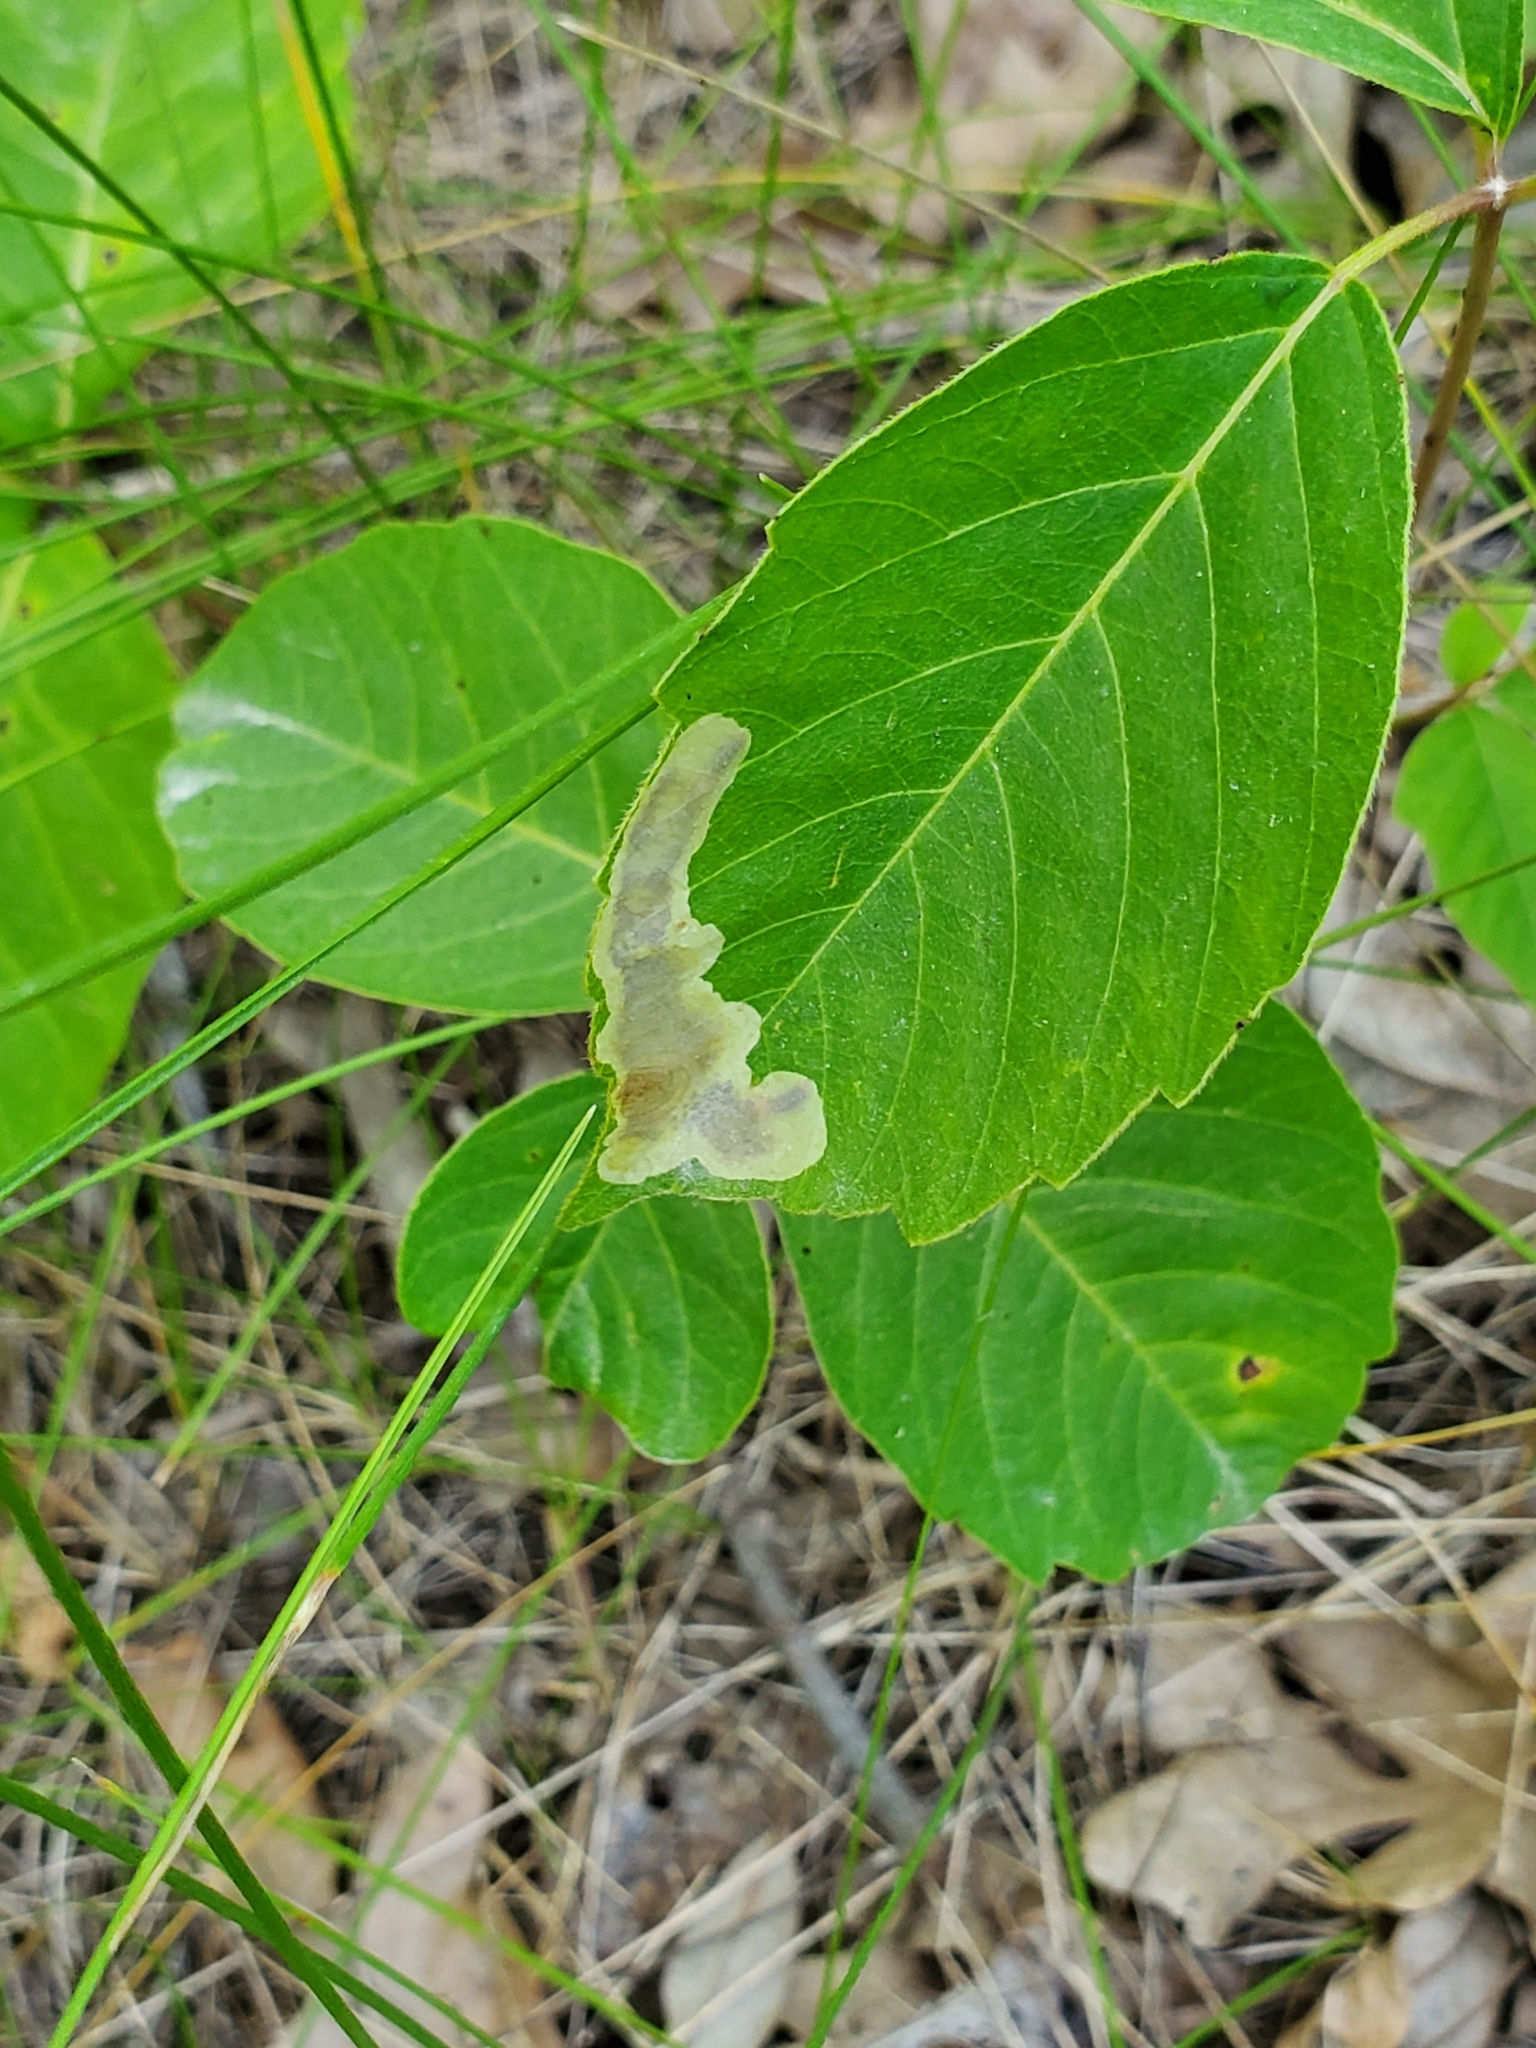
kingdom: Animalia
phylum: Arthropoda
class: Insecta
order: Lepidoptera
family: Gracillariidae
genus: Cameraria
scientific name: Cameraria guttifinitella
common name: Poison ivy leaf-miner moth
